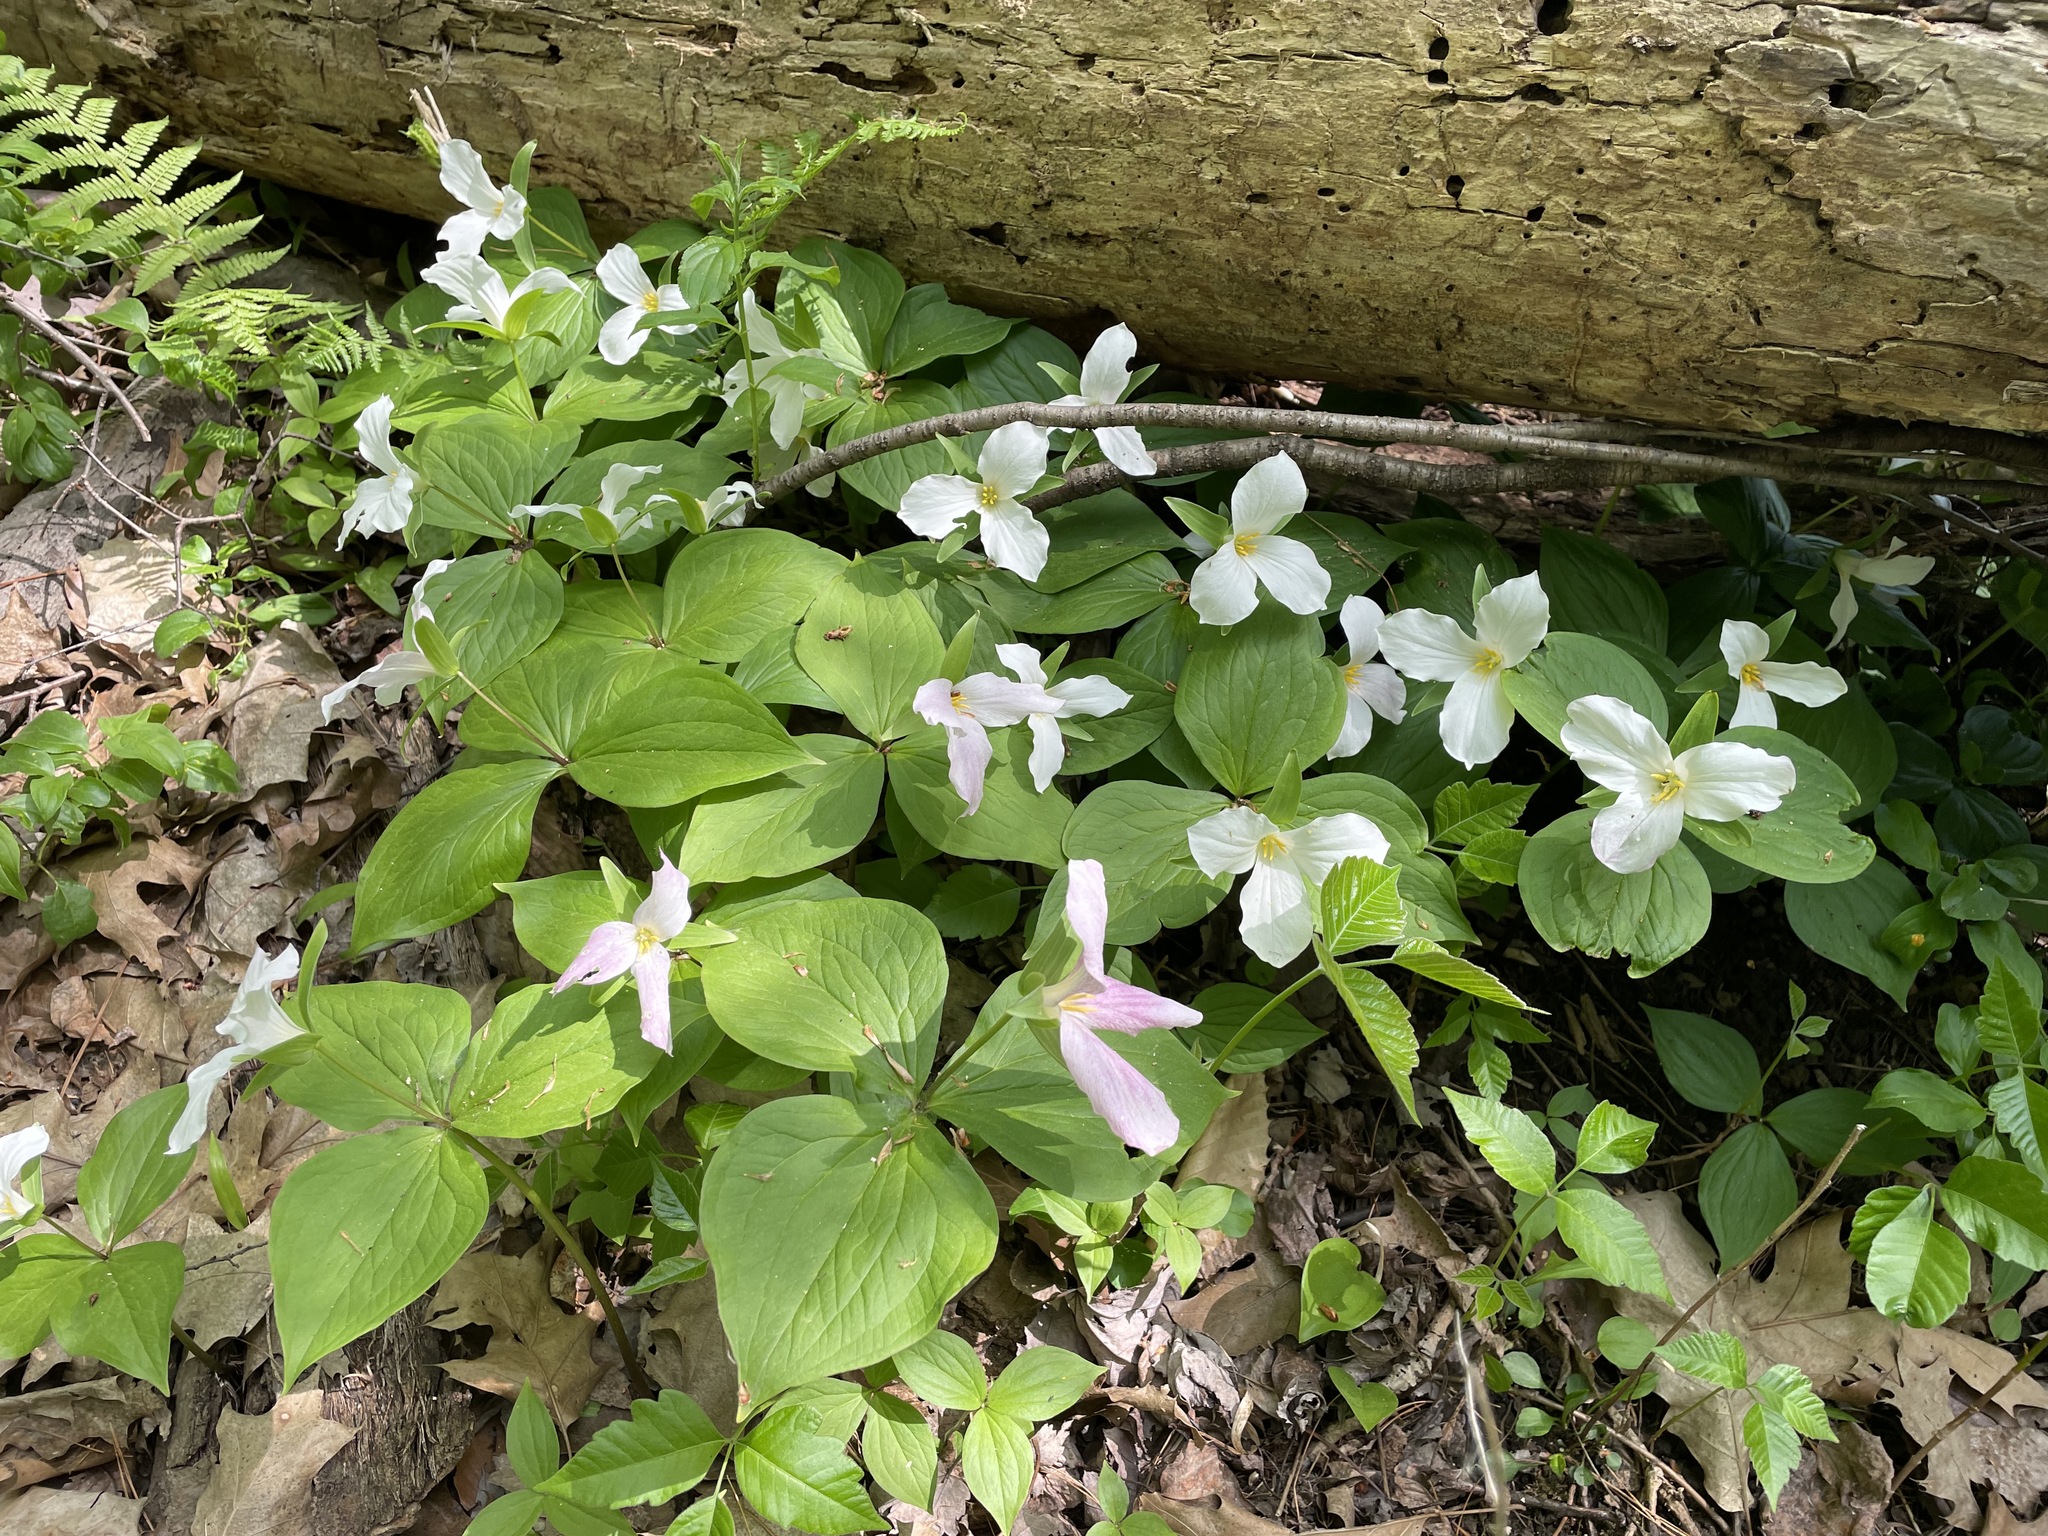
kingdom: Plantae
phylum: Tracheophyta
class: Liliopsida
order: Liliales
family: Melanthiaceae
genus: Trillium
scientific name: Trillium grandiflorum
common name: Great white trillium
